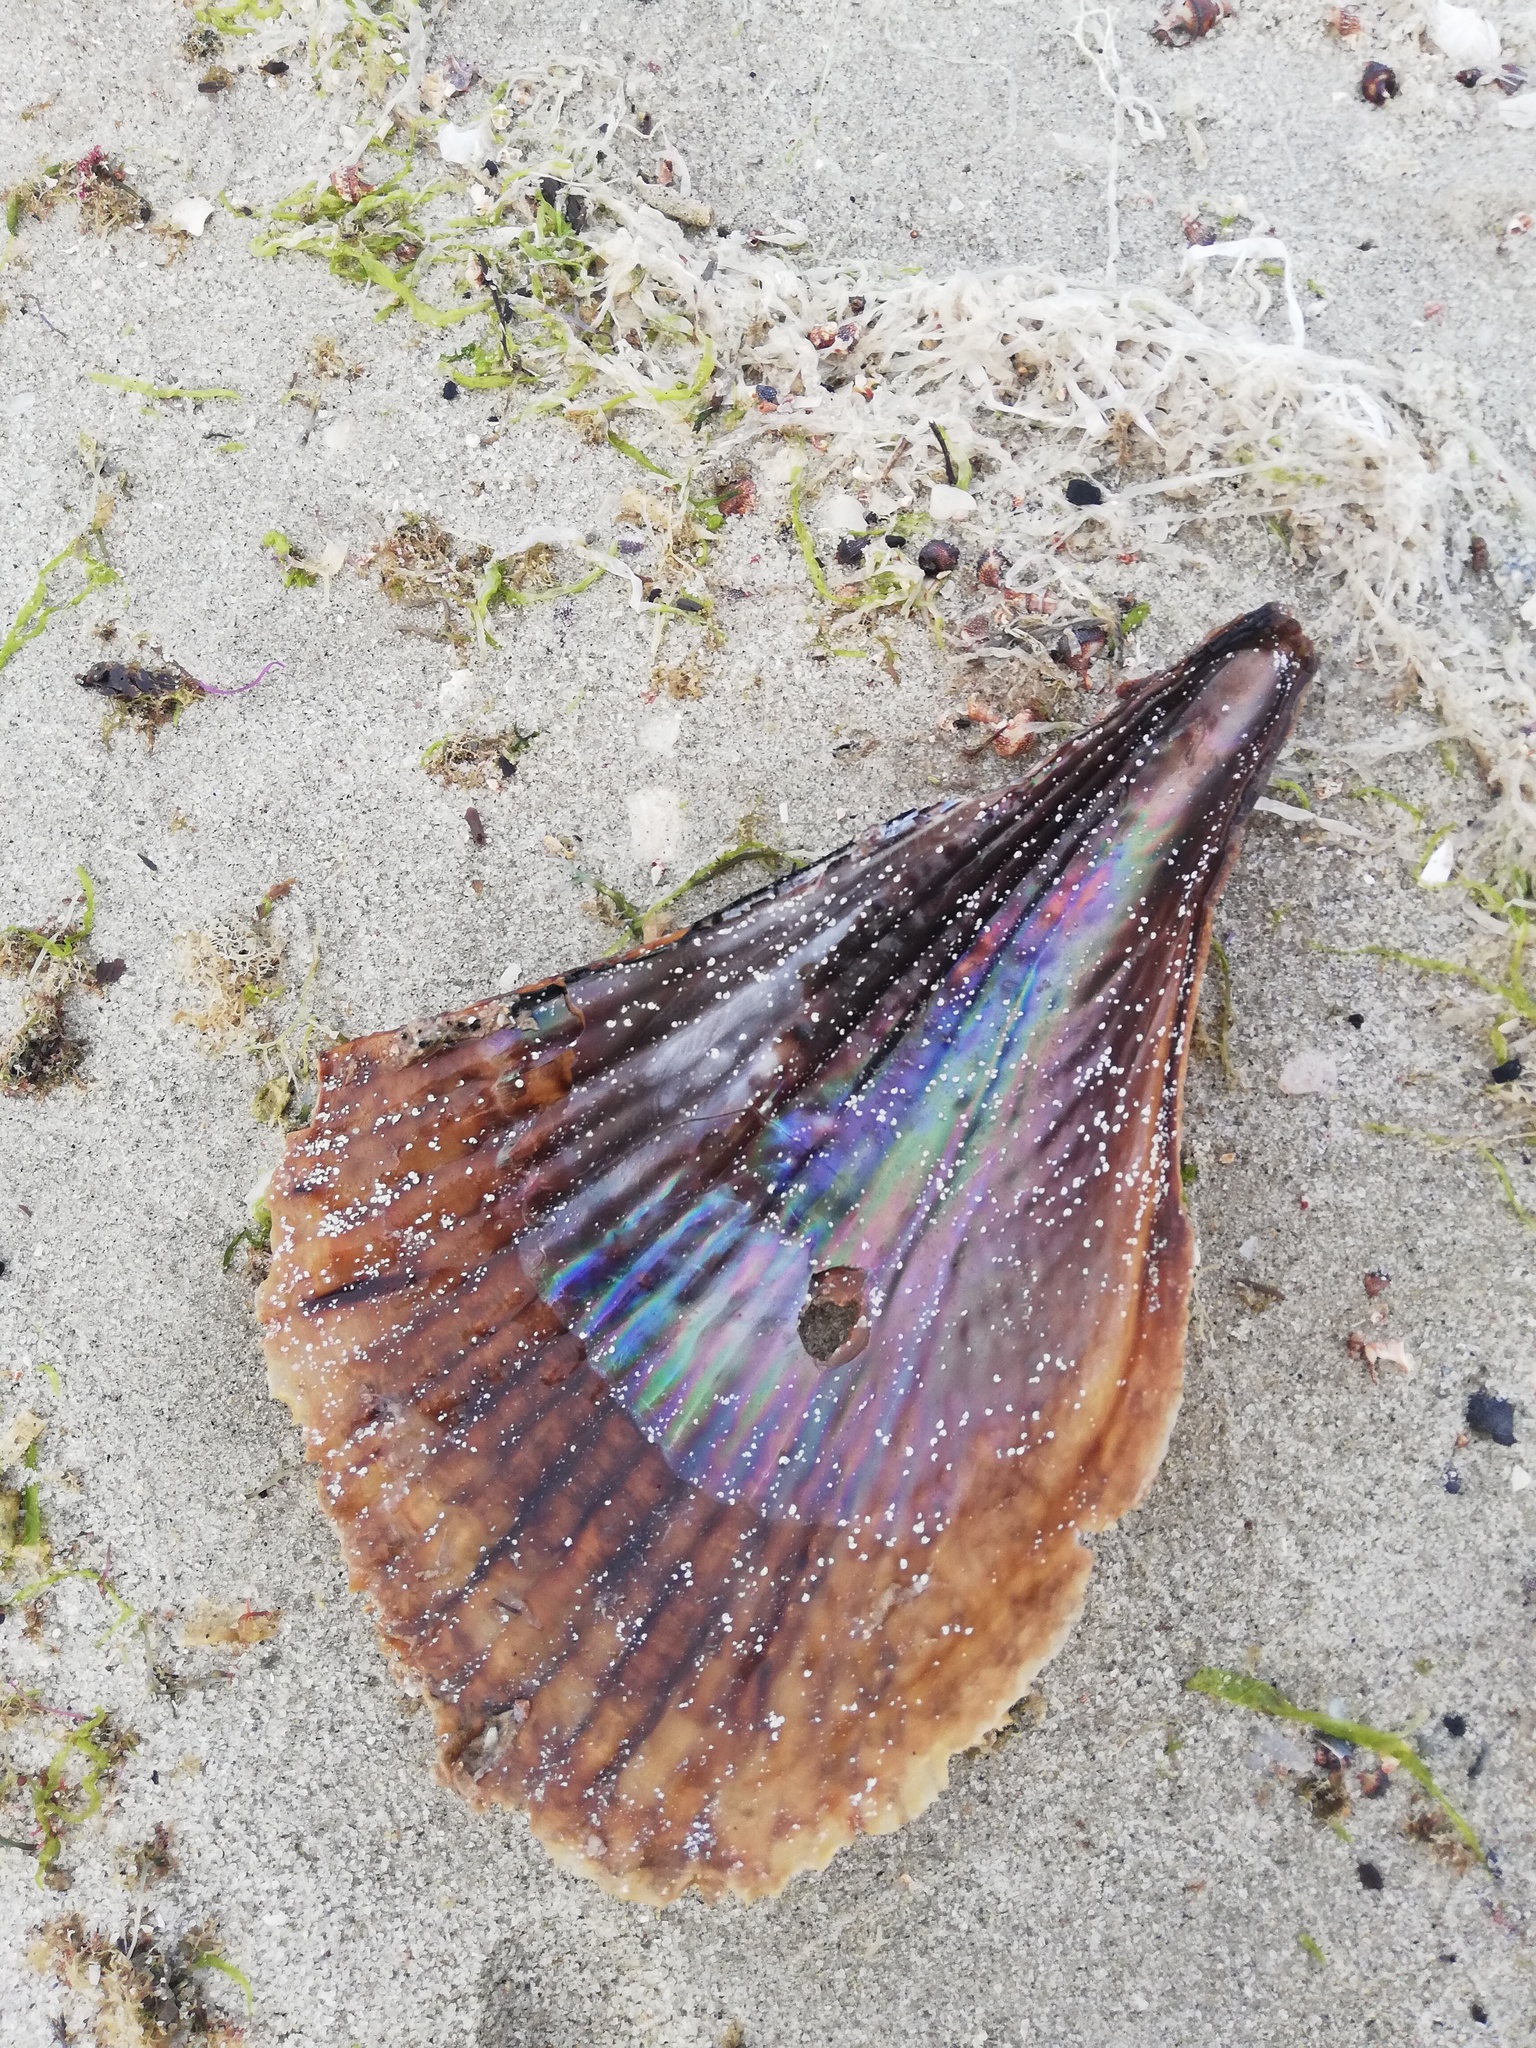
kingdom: Animalia
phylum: Mollusca
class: Bivalvia
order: Ostreida
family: Pinnidae
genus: Atrina
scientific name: Atrina maura
